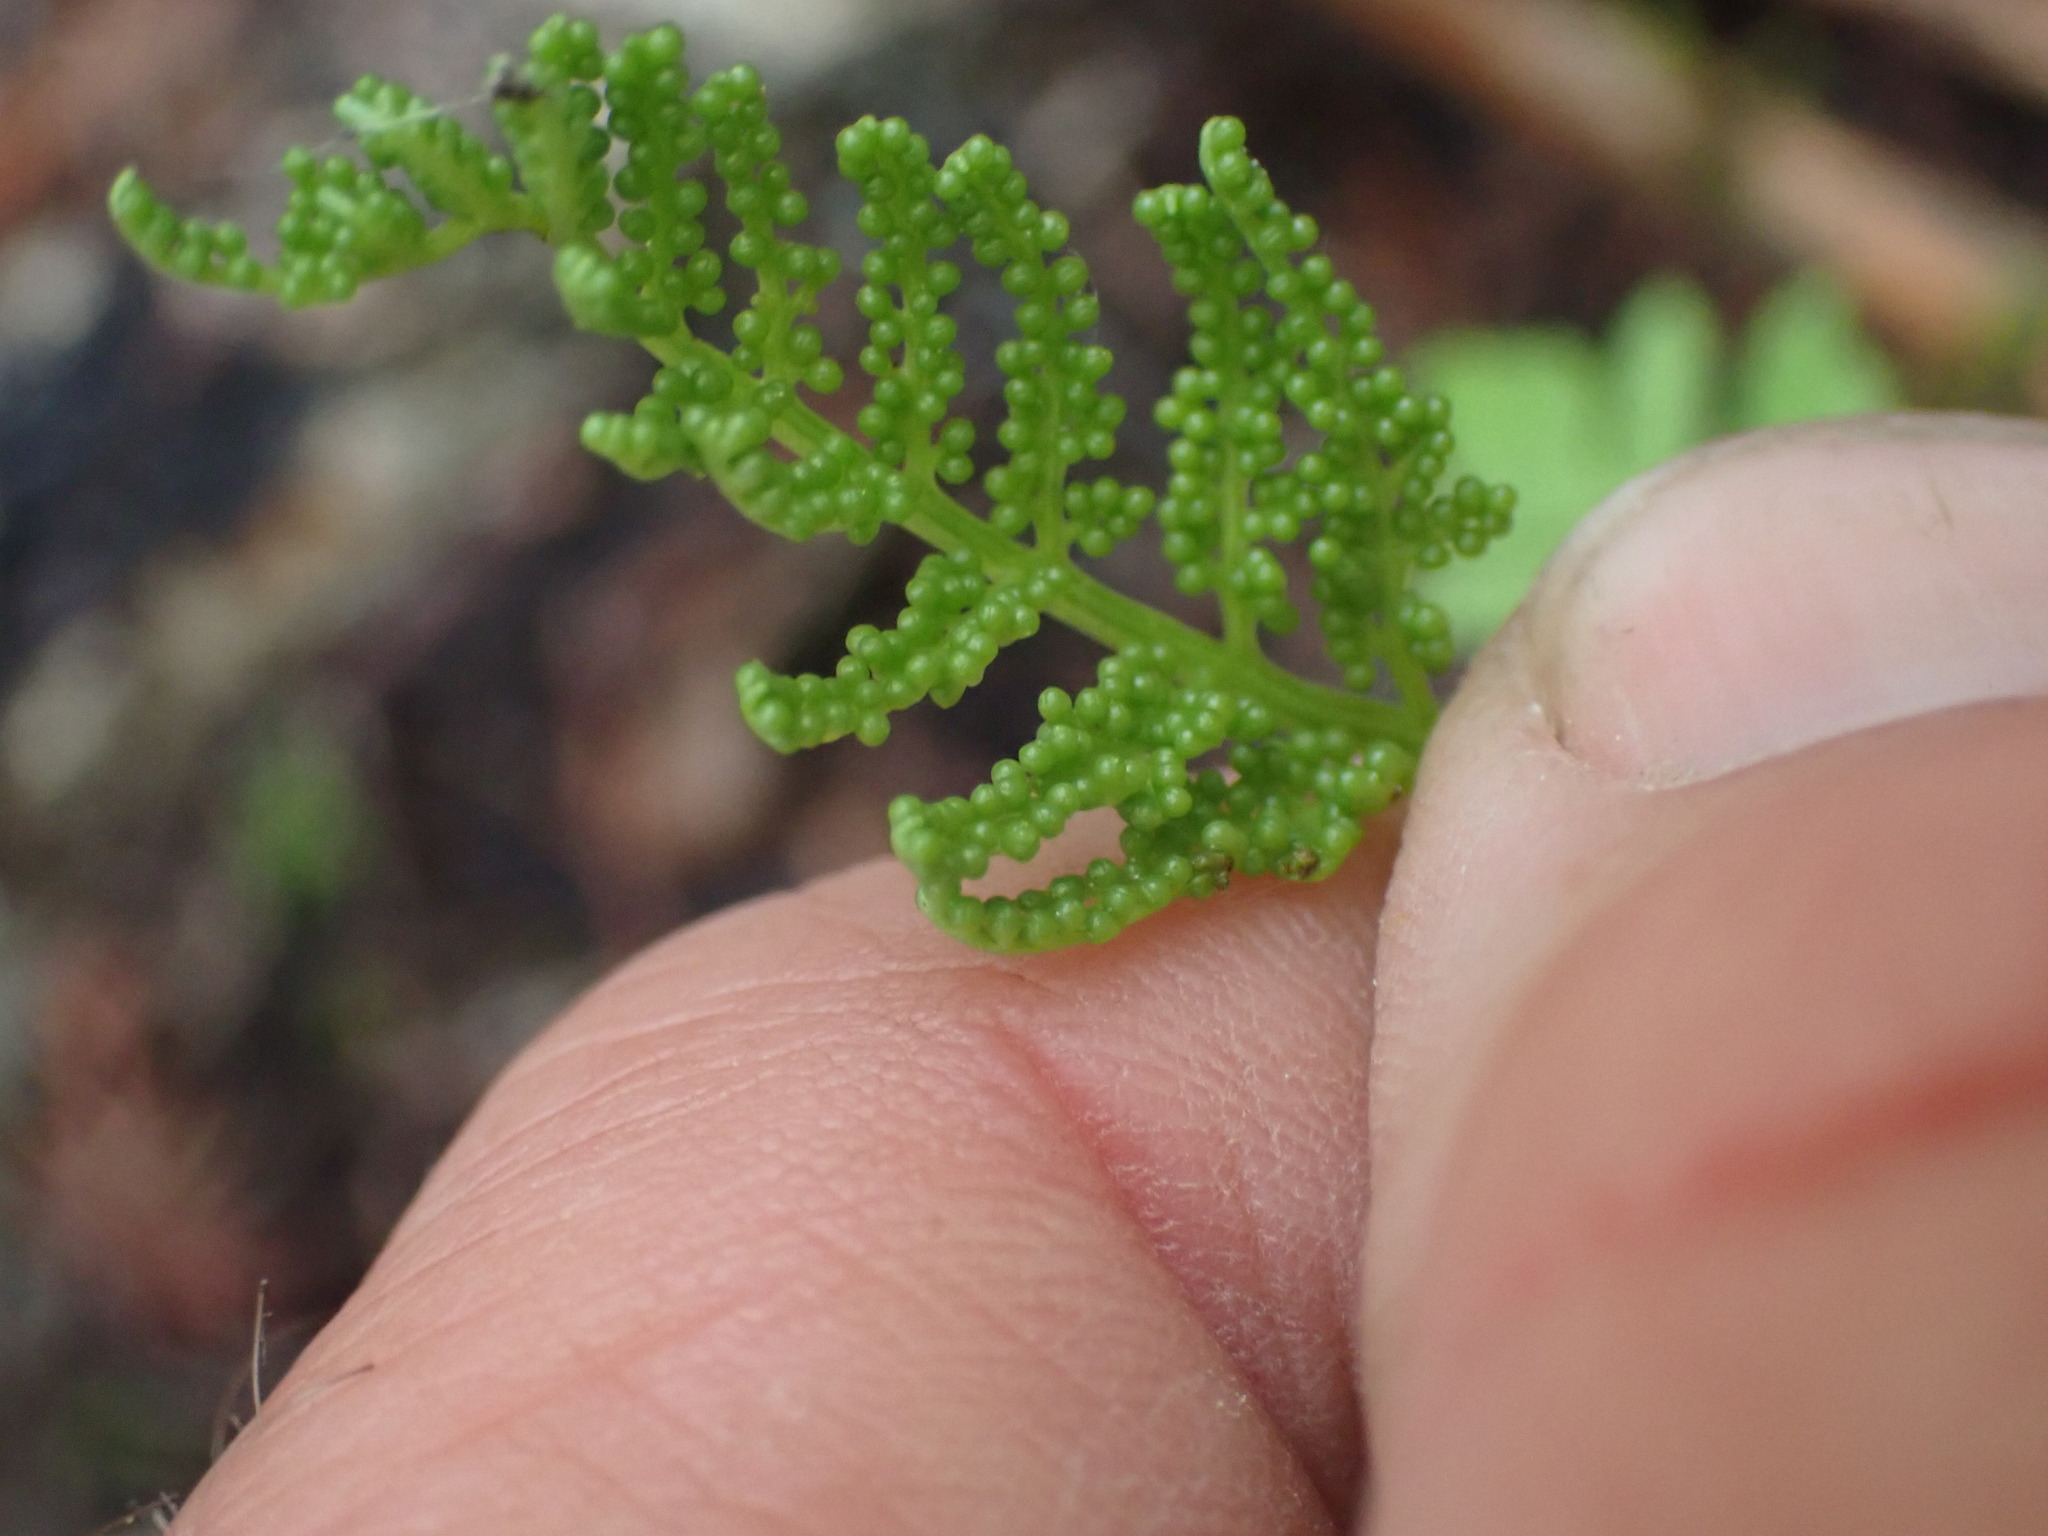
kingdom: Plantae
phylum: Tracheophyta
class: Polypodiopsida
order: Ophioglossales
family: Ophioglossaceae
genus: Botrypus
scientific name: Botrypus virginianus
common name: Common grapefern
